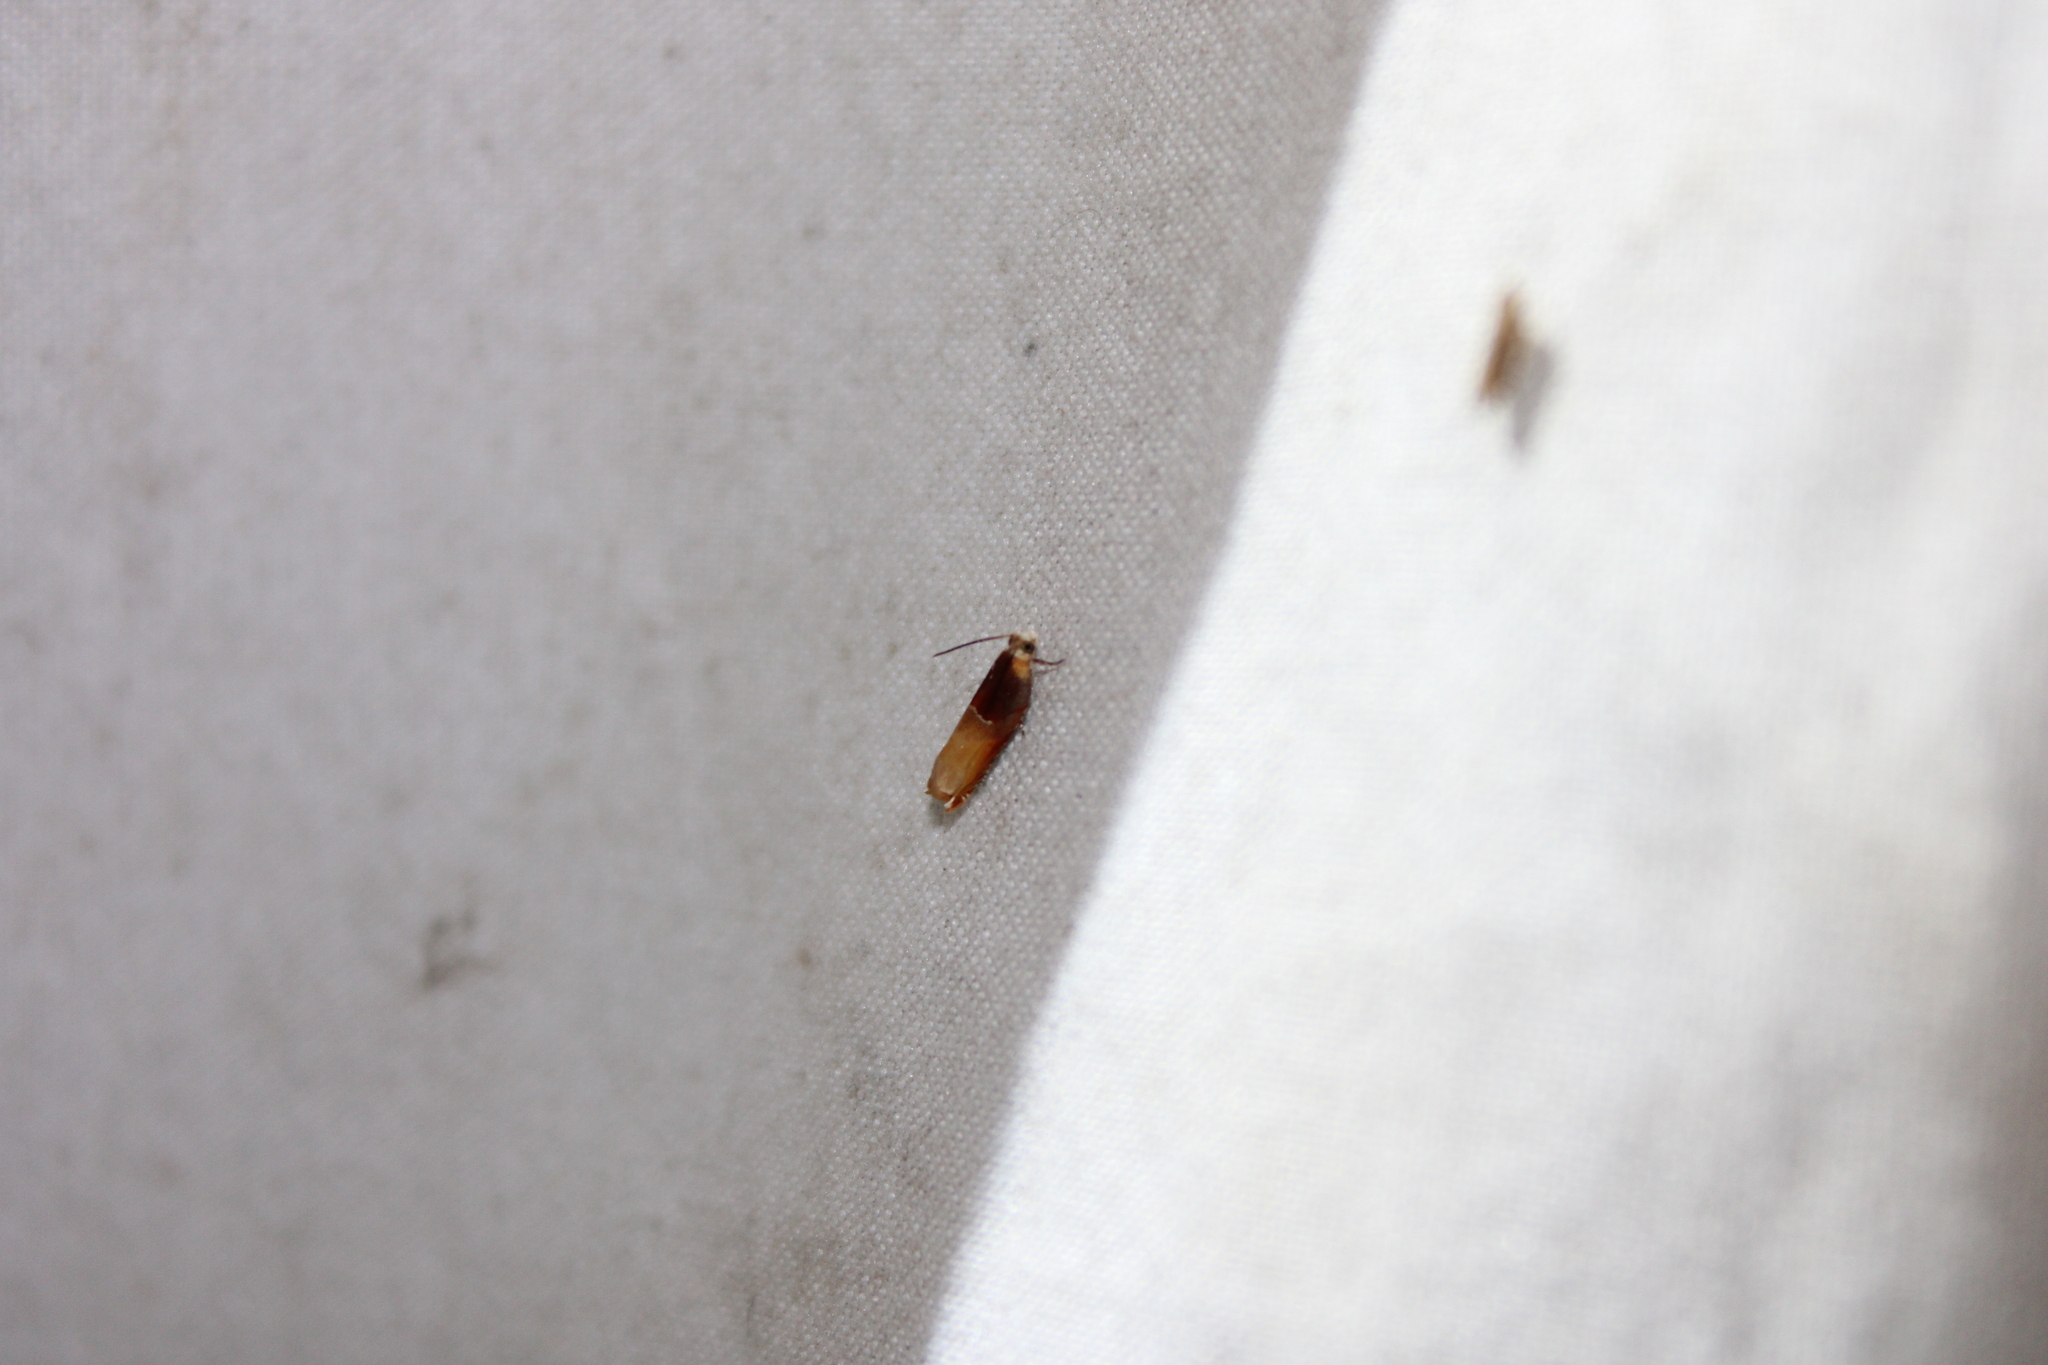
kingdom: Animalia
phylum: Arthropoda
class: Insecta
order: Lepidoptera
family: Tortricidae
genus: Ancylis
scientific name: Ancylis divisana
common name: Two-toned ancylis moth
